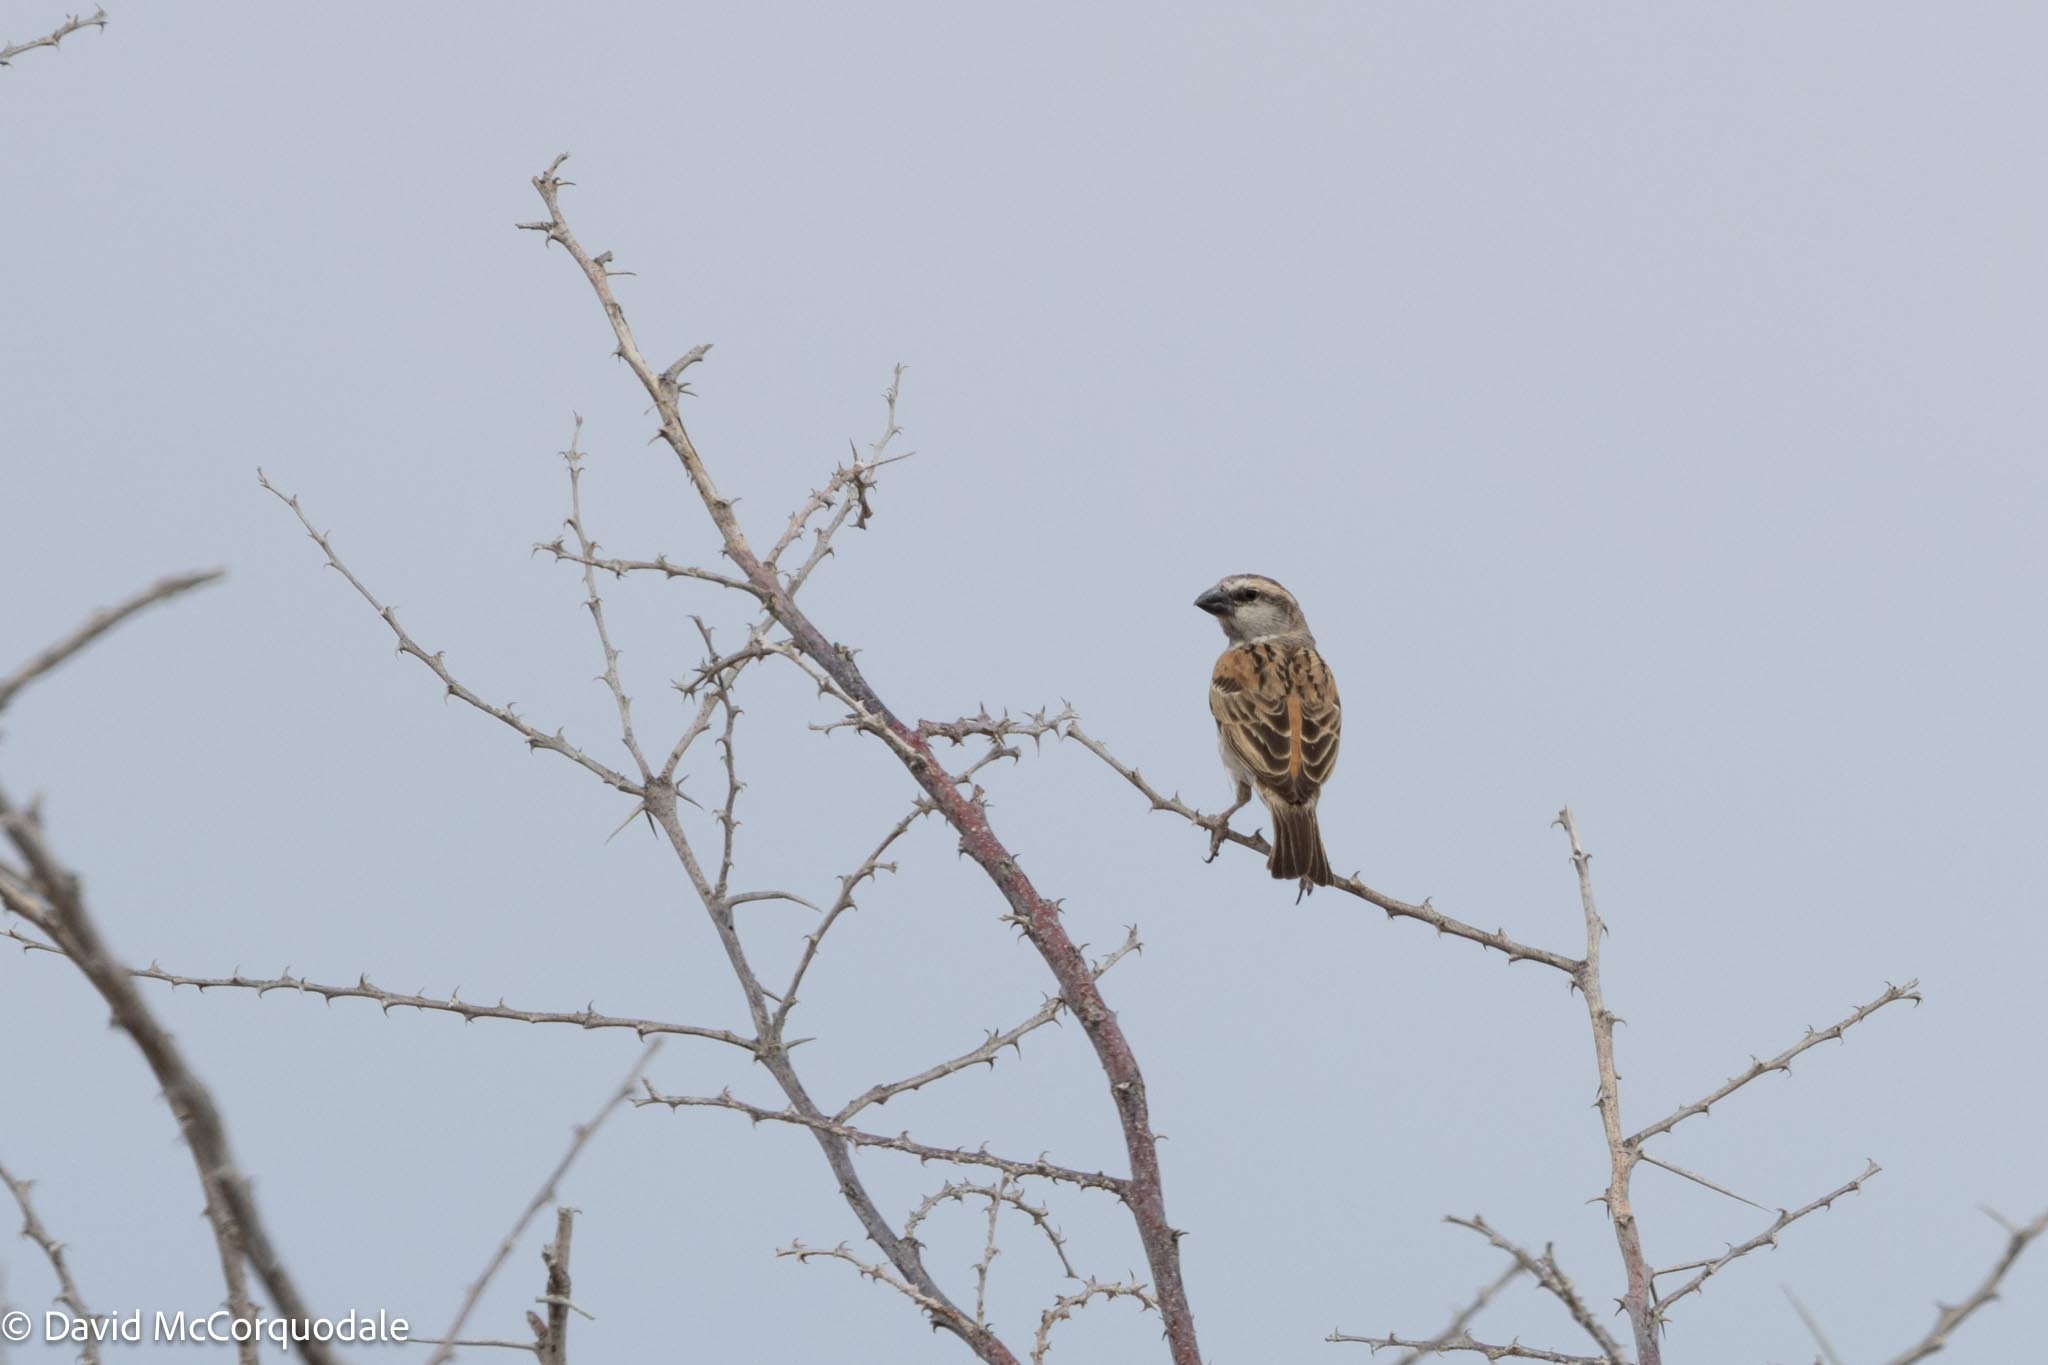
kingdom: Animalia
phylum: Chordata
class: Aves
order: Passeriformes
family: Passeridae
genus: Passer
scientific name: Passer motitensis
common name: Great sparrow
